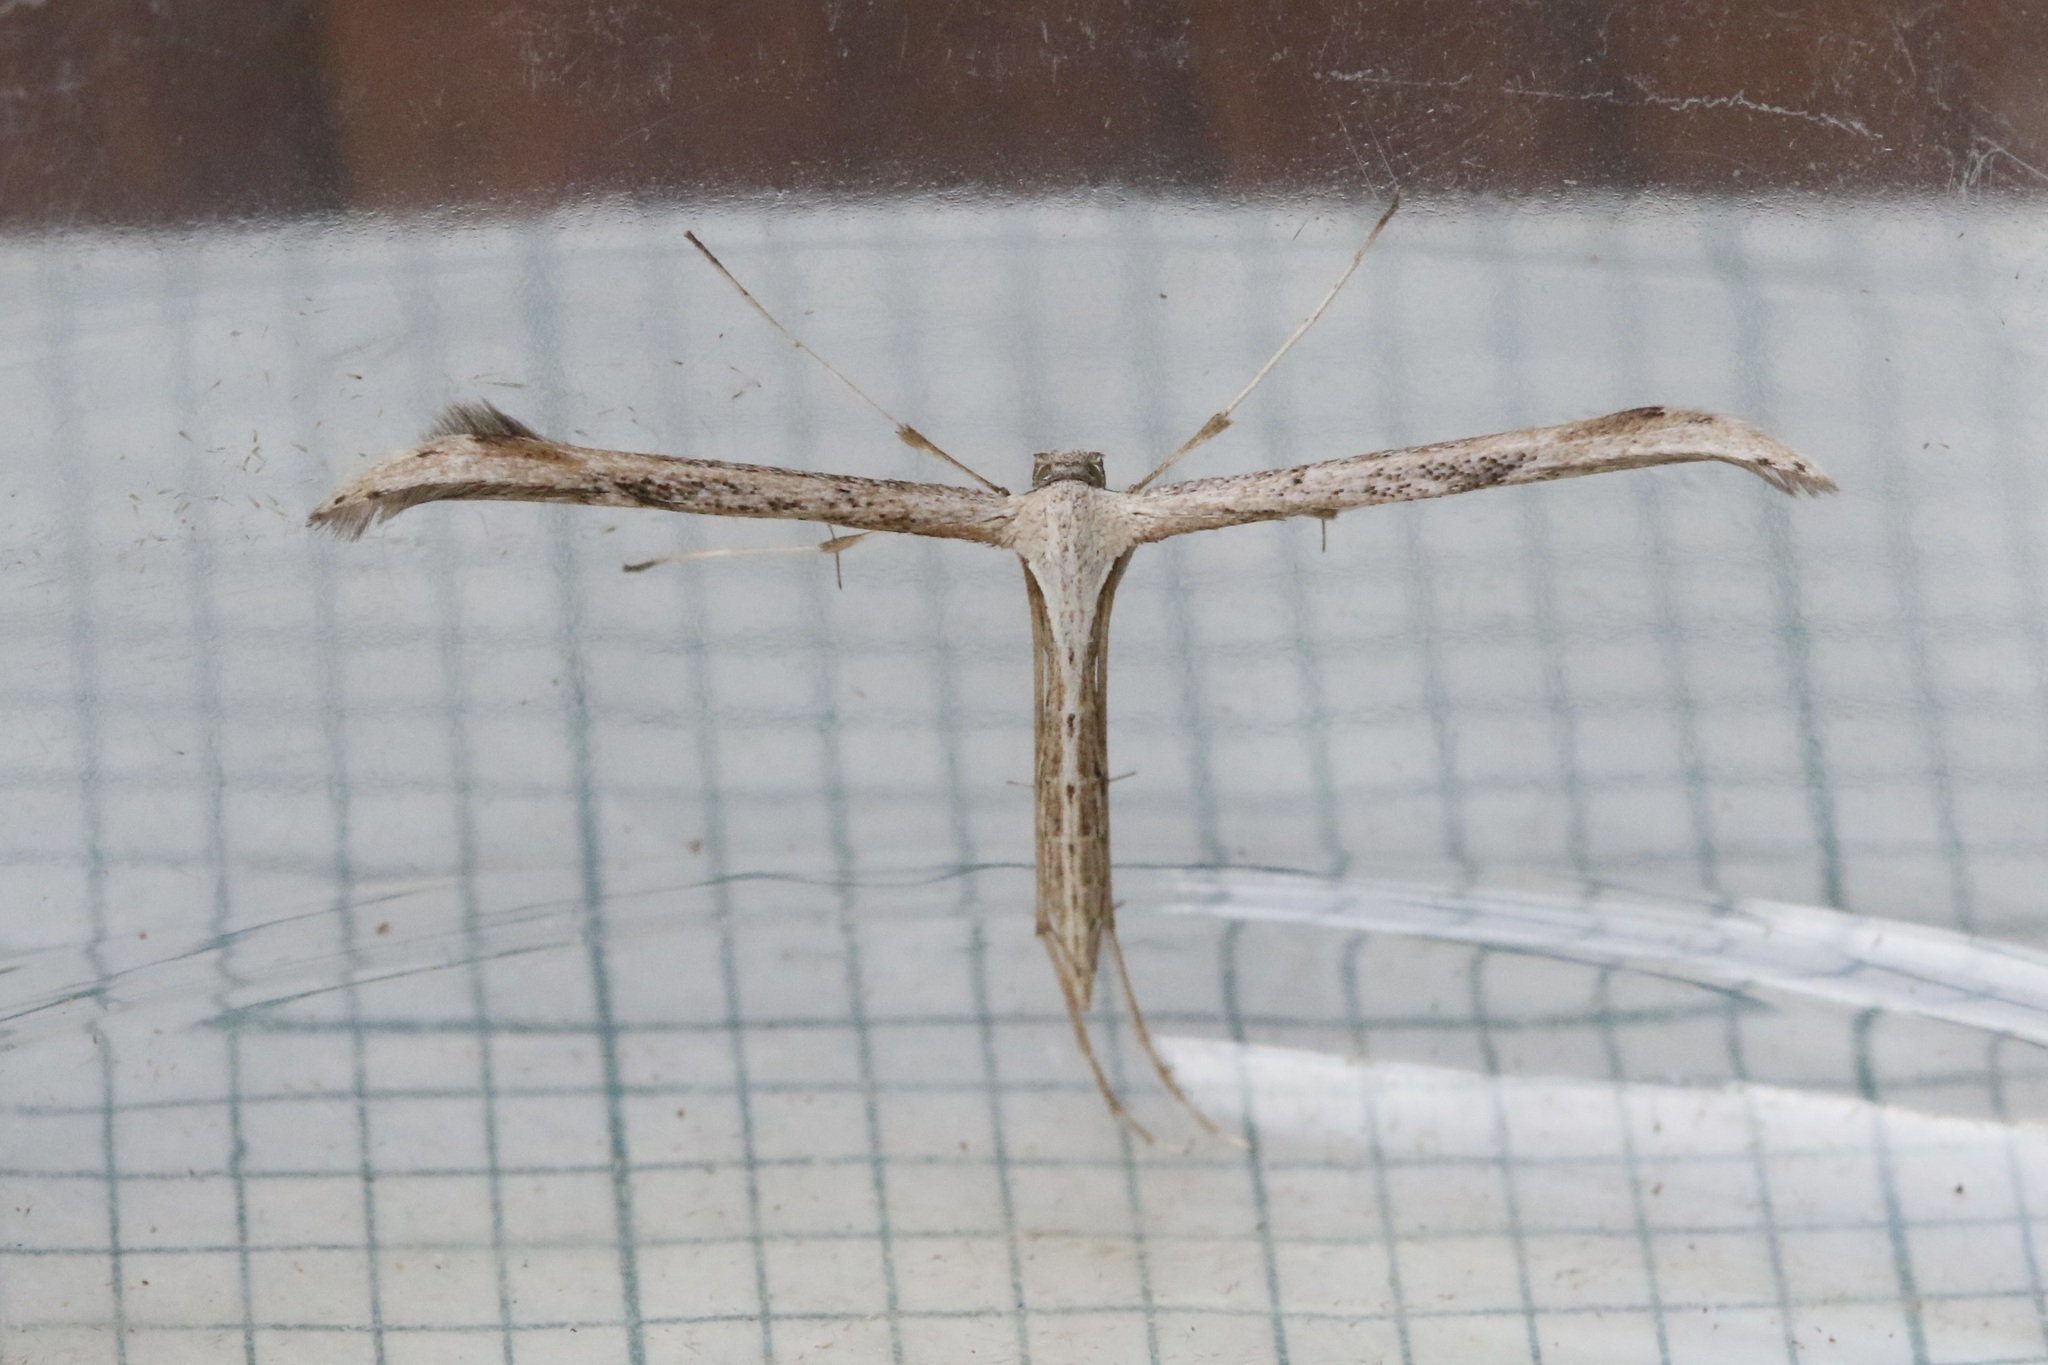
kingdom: Animalia
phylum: Arthropoda
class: Insecta
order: Lepidoptera
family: Pterophoridae
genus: Emmelina
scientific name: Emmelina monodactyla
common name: Common plume
